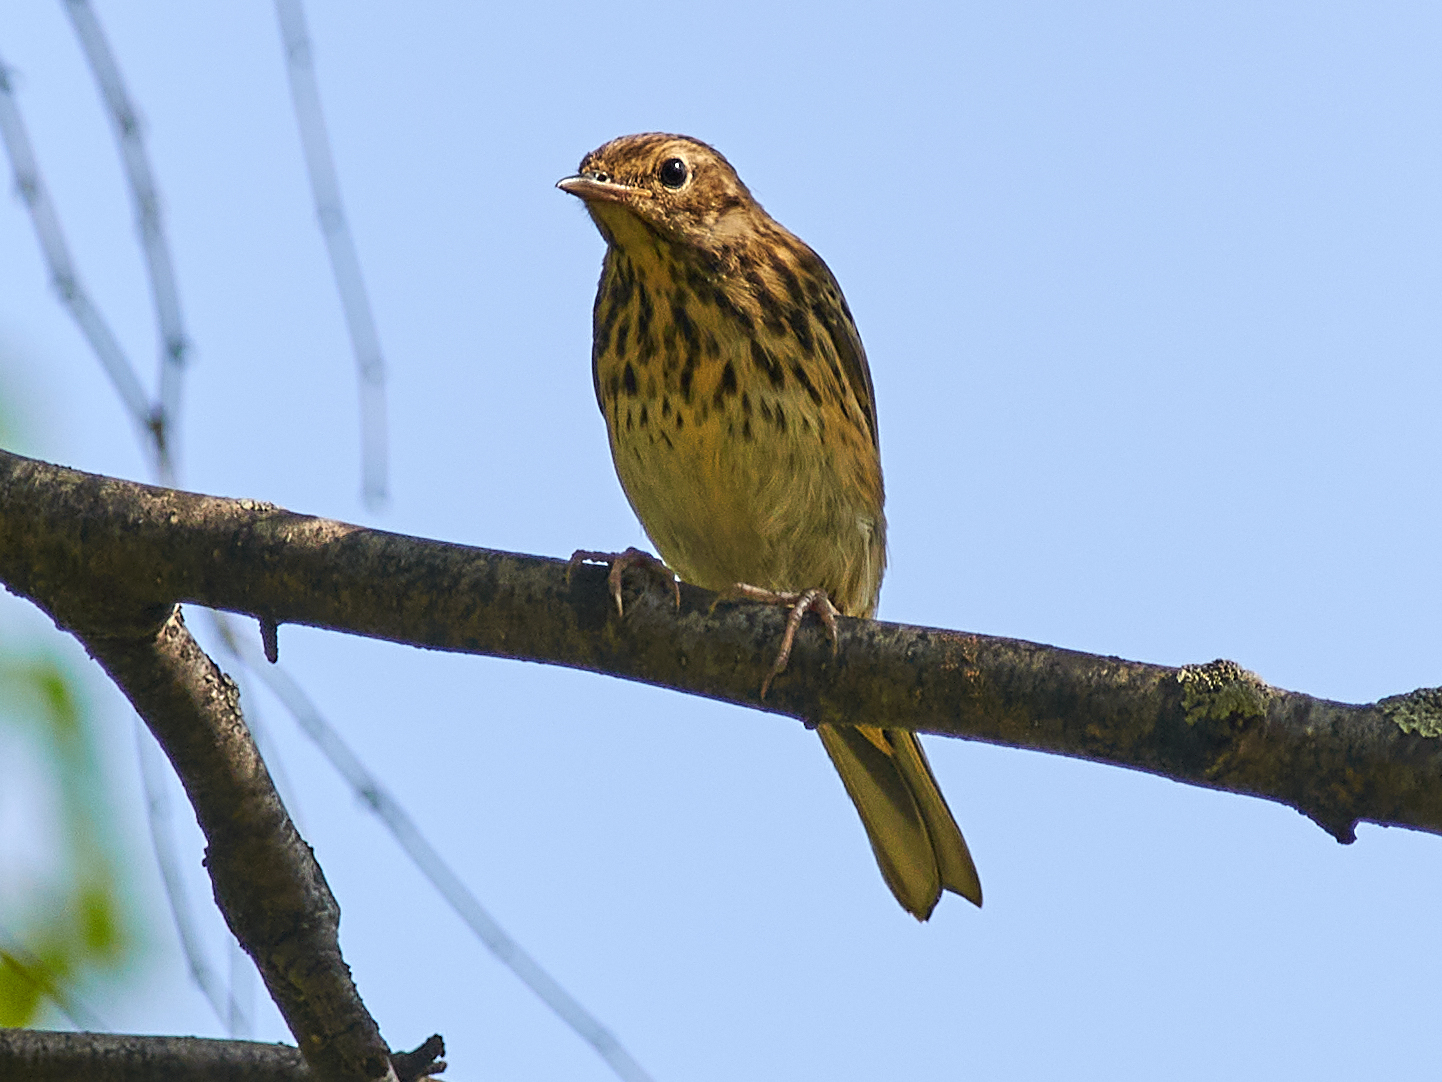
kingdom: Animalia
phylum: Chordata
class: Aves
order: Passeriformes
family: Motacillidae
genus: Anthus
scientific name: Anthus trivialis
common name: Tree pipit
